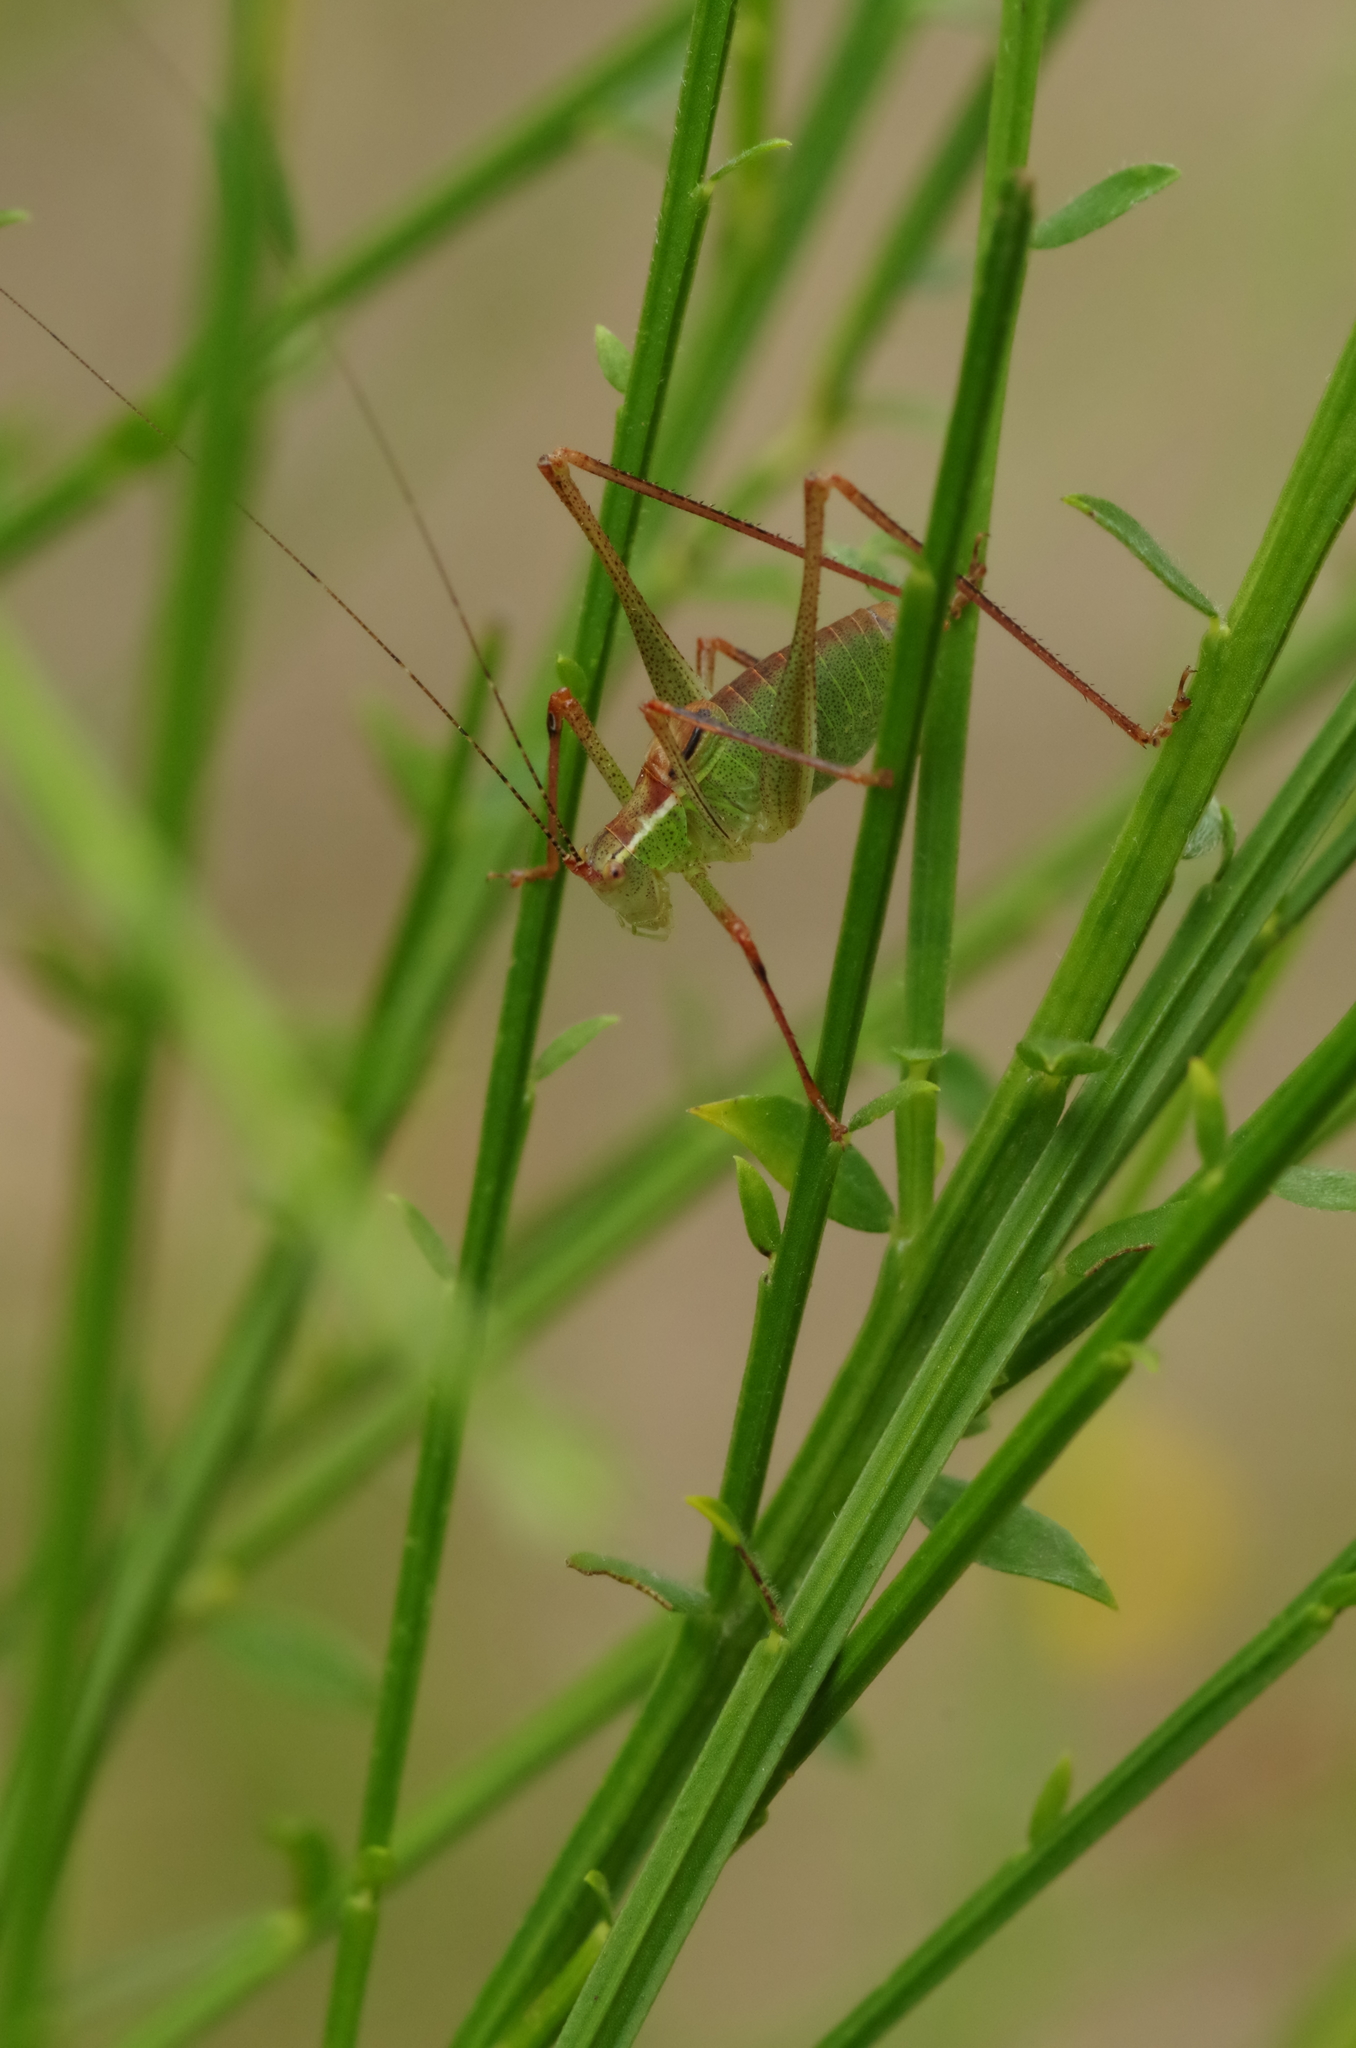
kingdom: Animalia
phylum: Arthropoda
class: Insecta
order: Orthoptera
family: Tettigoniidae
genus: Leptophyes
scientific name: Leptophyes punctatissima
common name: Speckled bush-cricket
